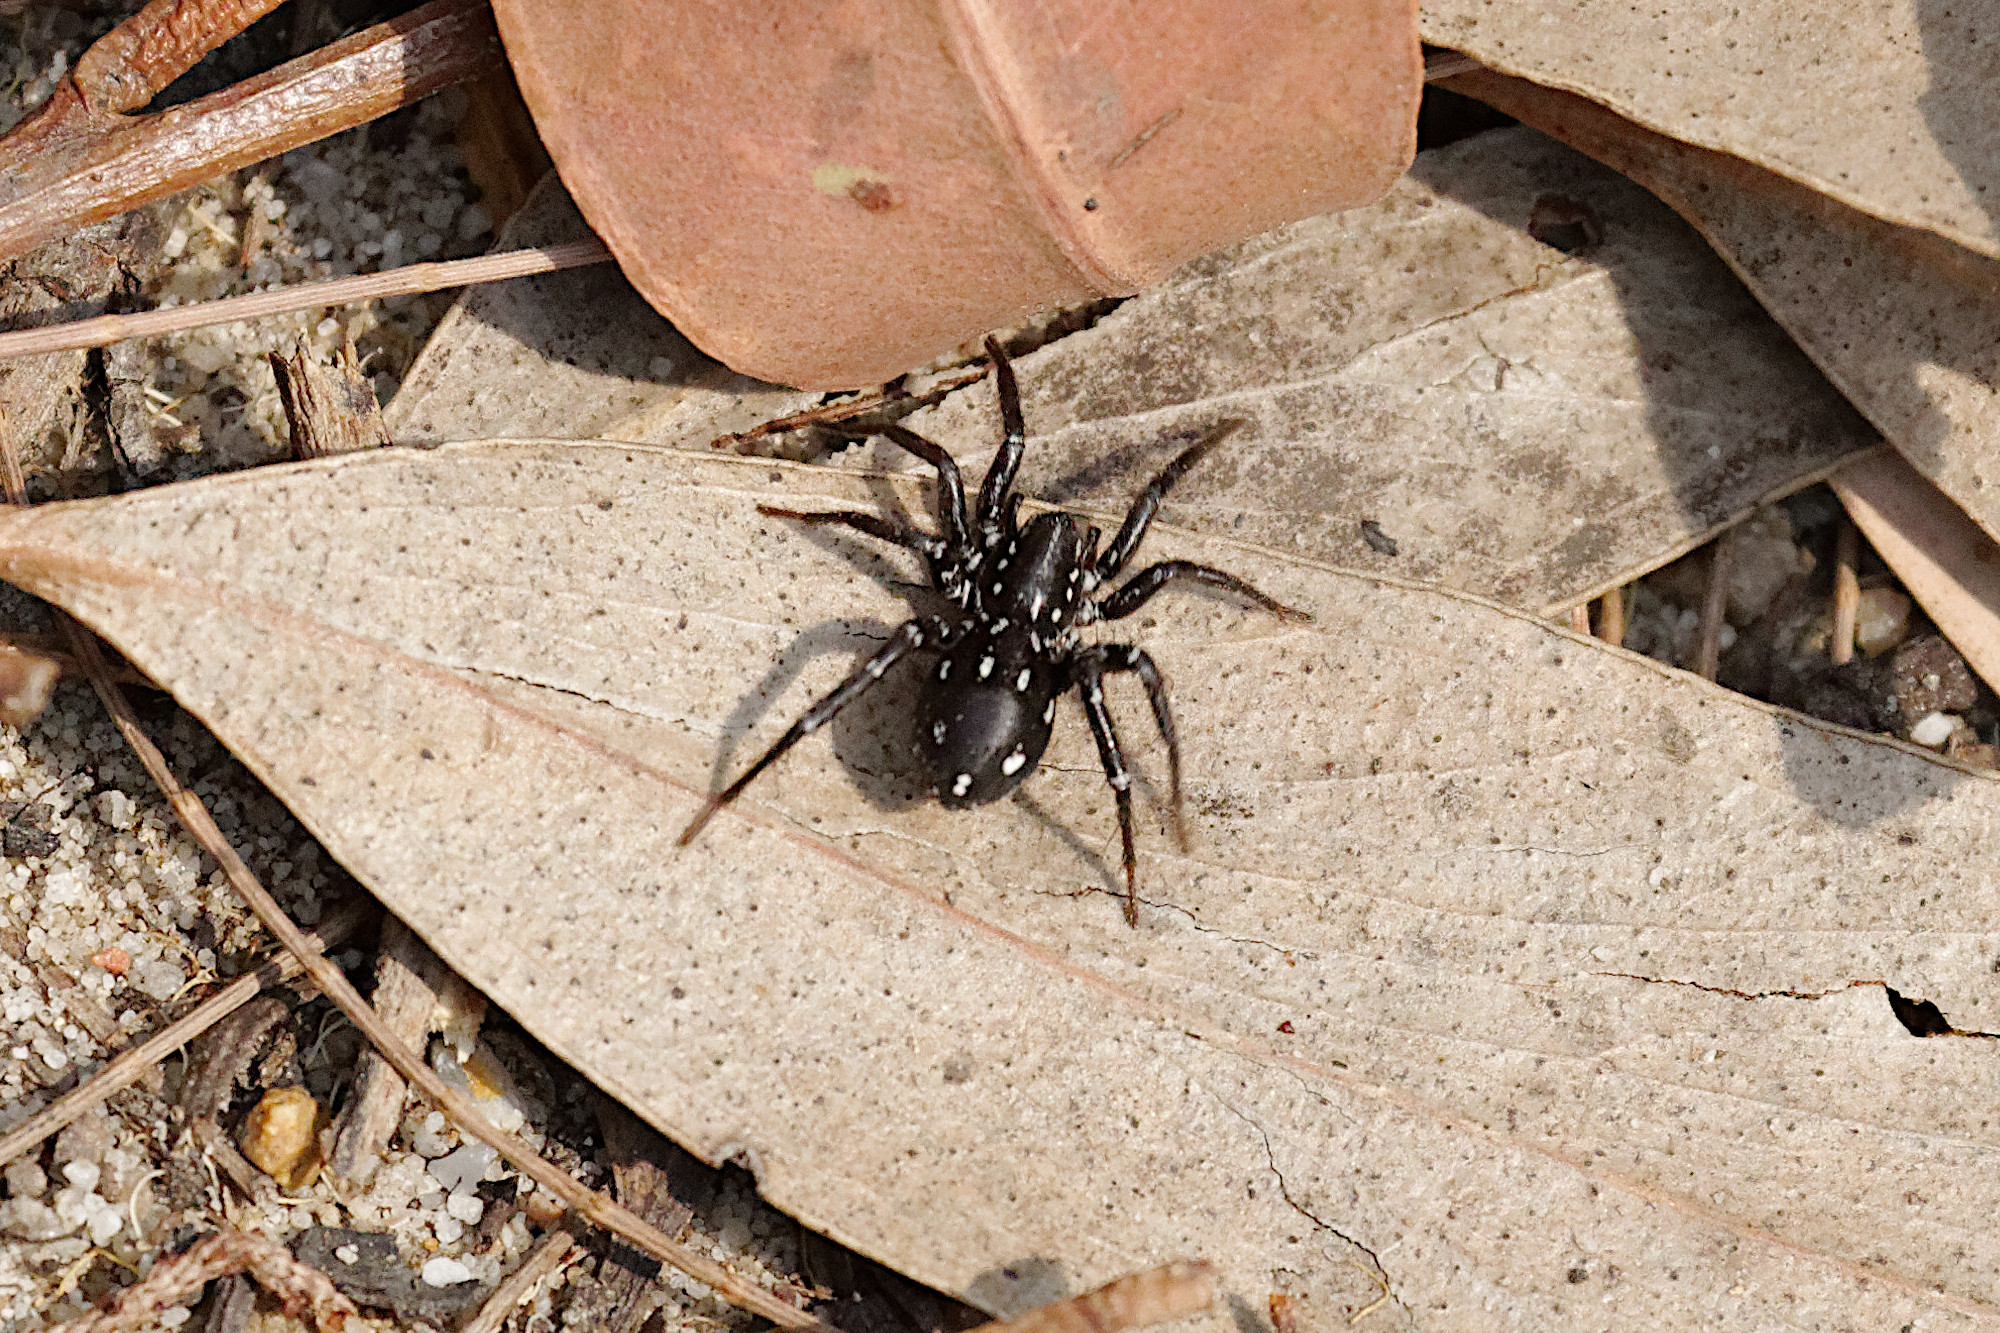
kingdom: Animalia
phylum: Arthropoda
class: Arachnida
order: Araneae
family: Corinnidae
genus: Nyssus
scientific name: Nyssus albopunctatus
